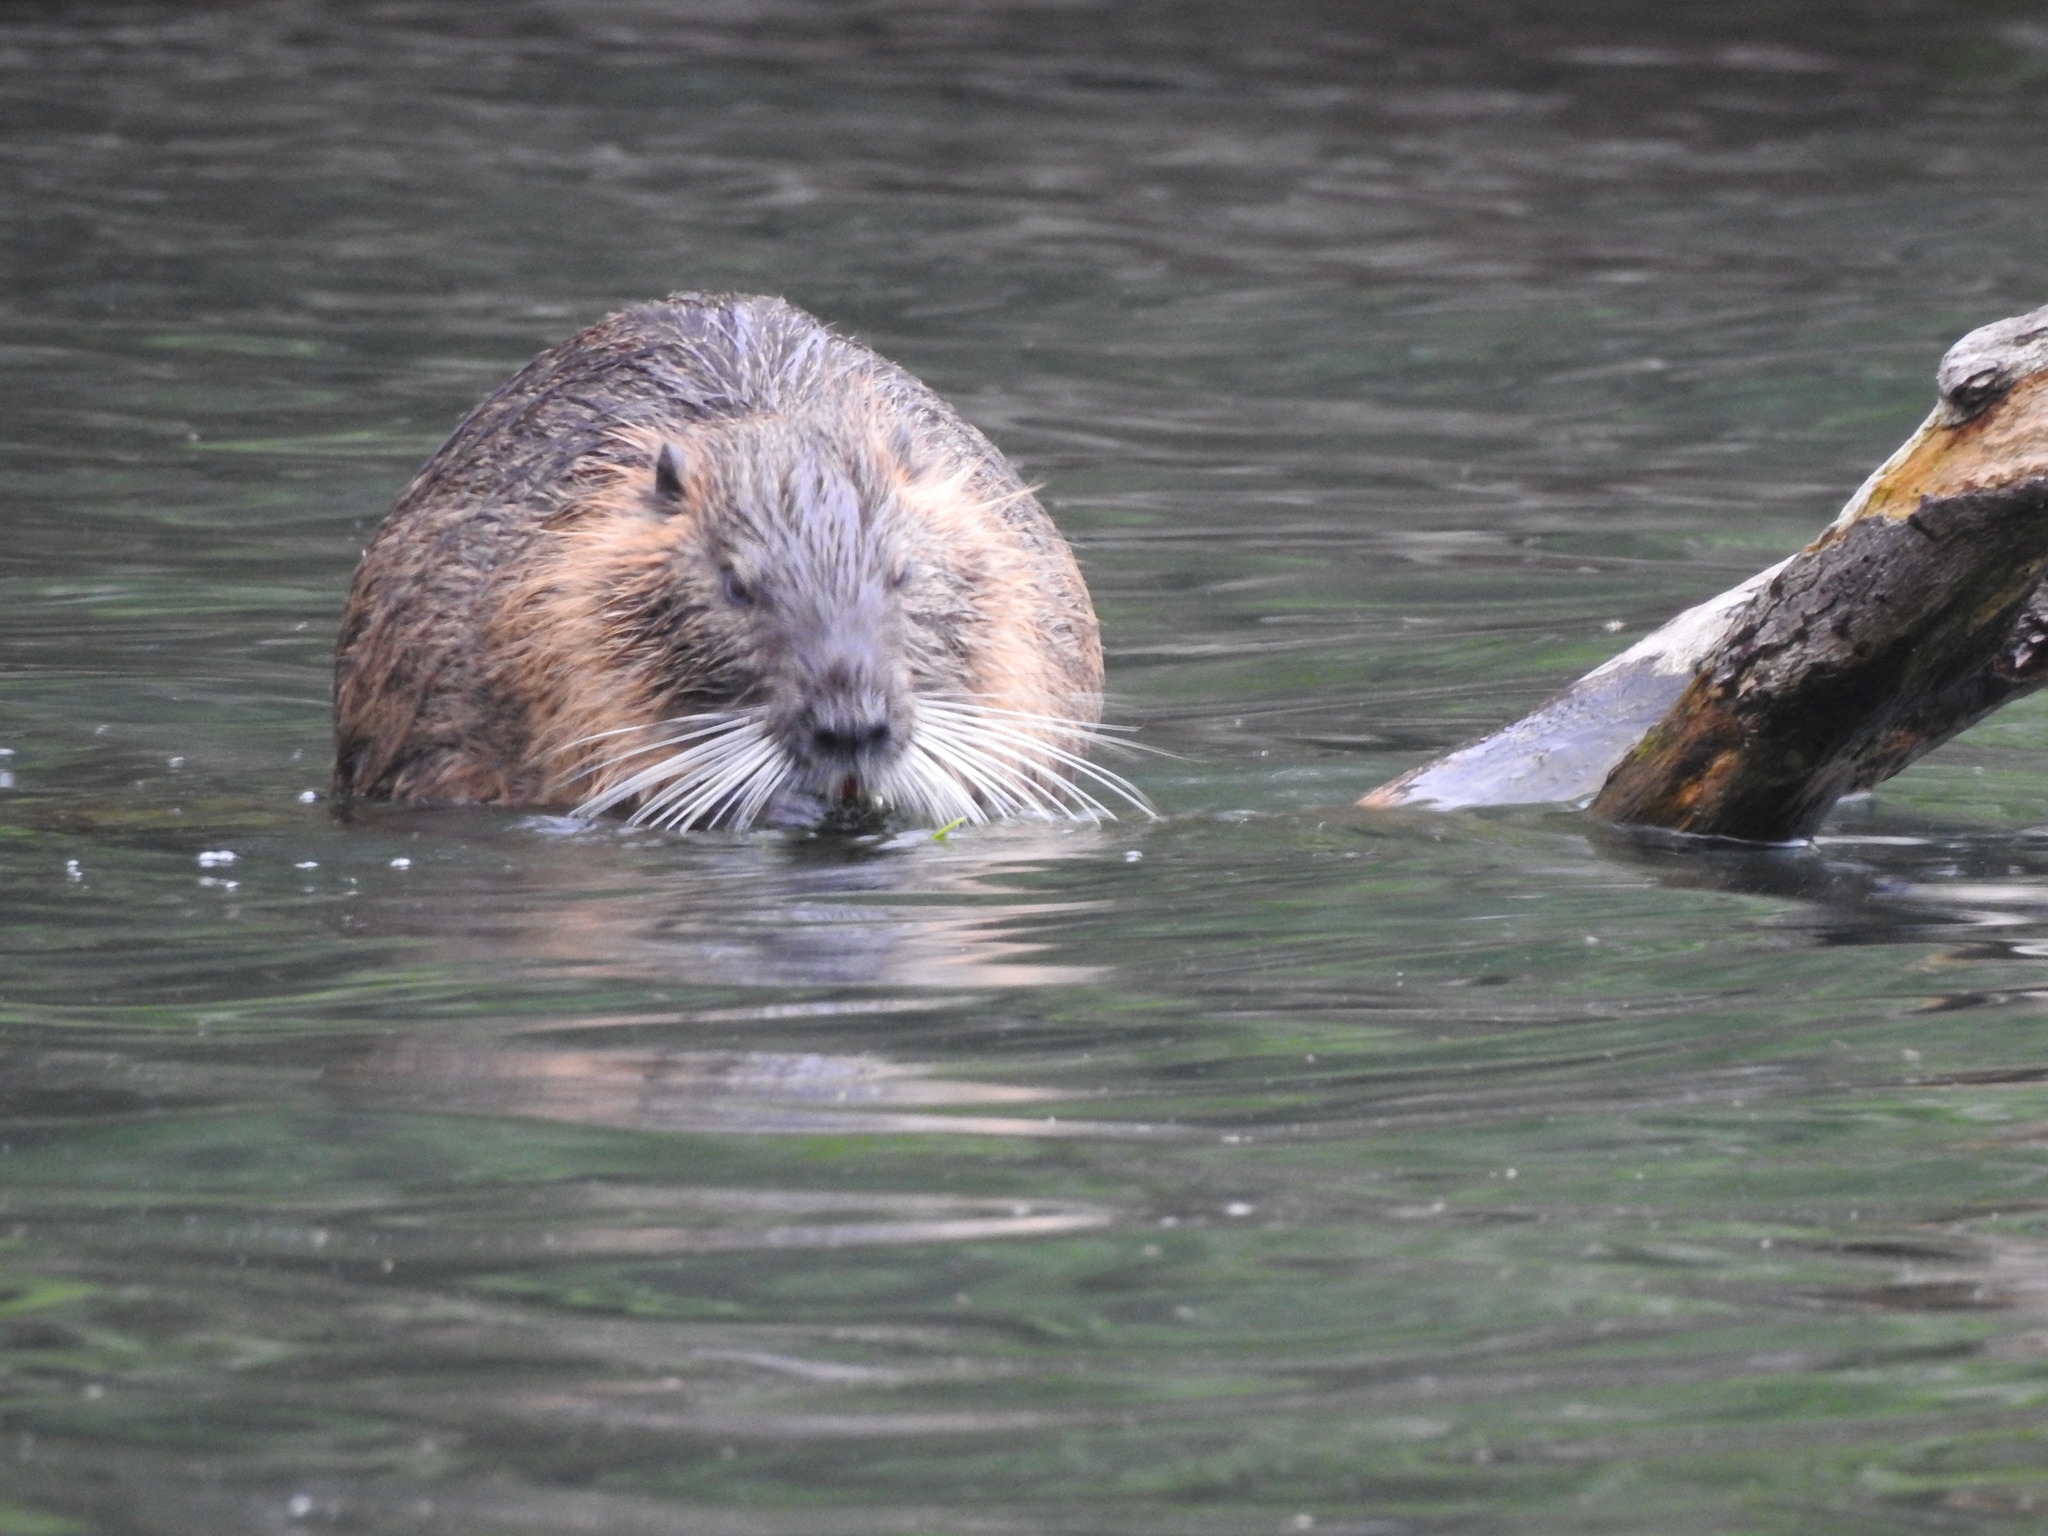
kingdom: Animalia
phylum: Chordata
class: Mammalia
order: Rodentia
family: Myocastoridae
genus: Myocastor
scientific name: Myocastor coypus
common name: Coypu
